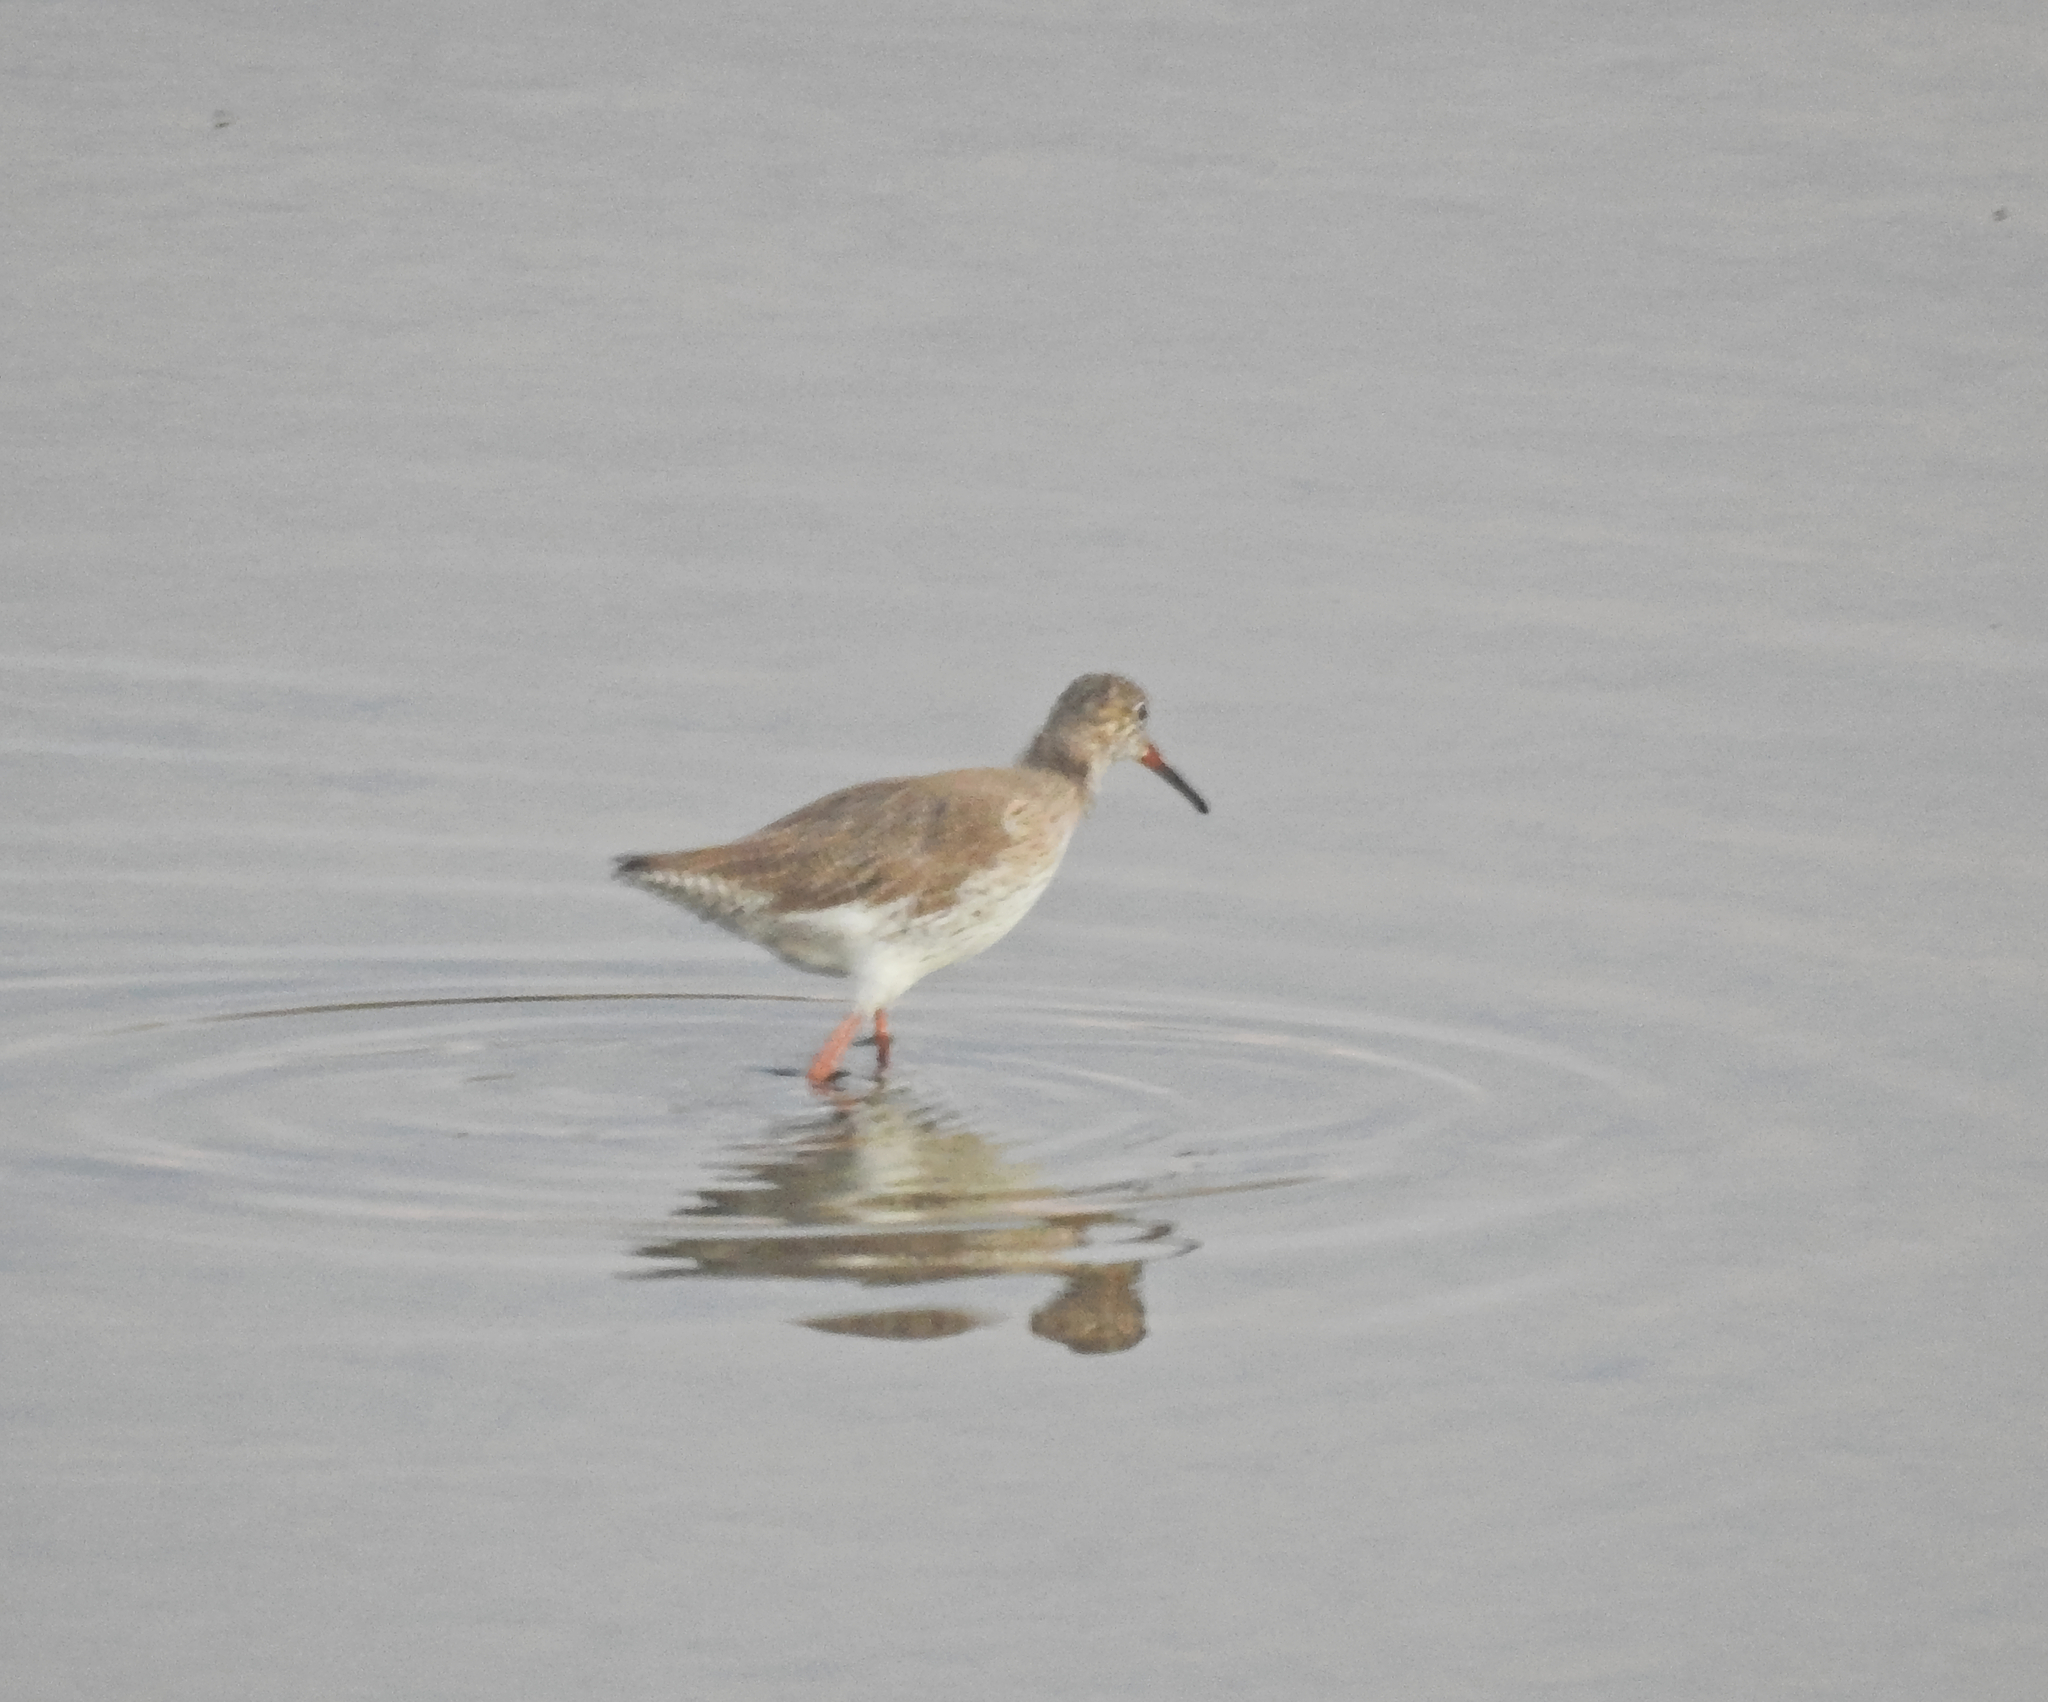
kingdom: Animalia
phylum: Chordata
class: Aves
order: Charadriiformes
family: Scolopacidae
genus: Tringa
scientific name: Tringa totanus
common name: Common redshank
